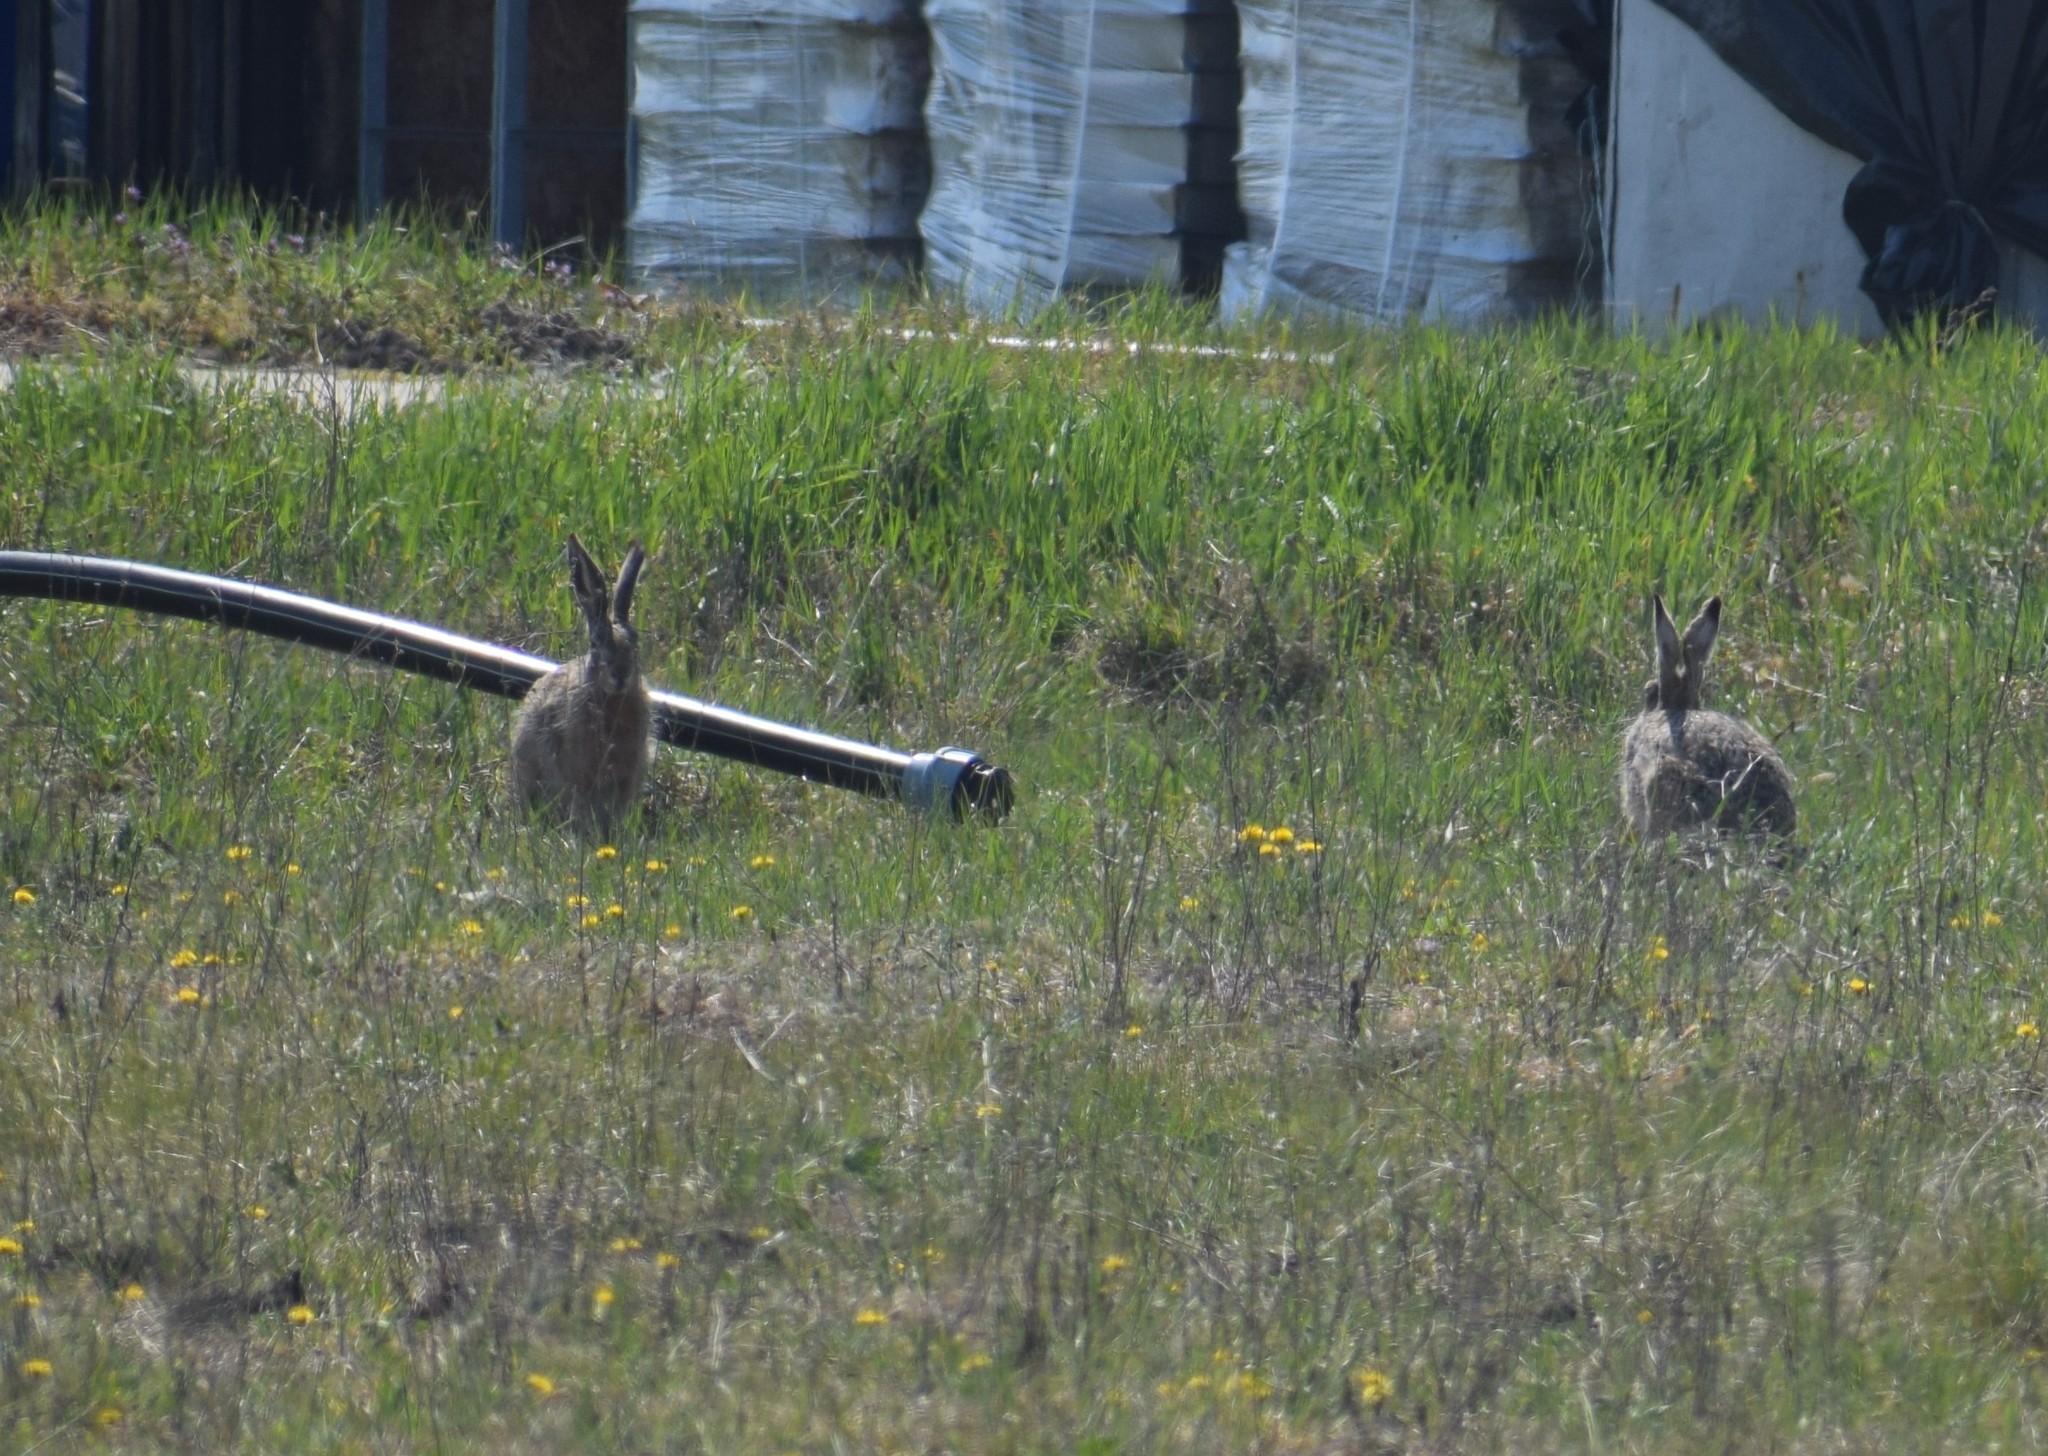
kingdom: Animalia
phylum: Chordata
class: Mammalia
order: Lagomorpha
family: Leporidae
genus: Lepus
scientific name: Lepus europaeus
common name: European hare
